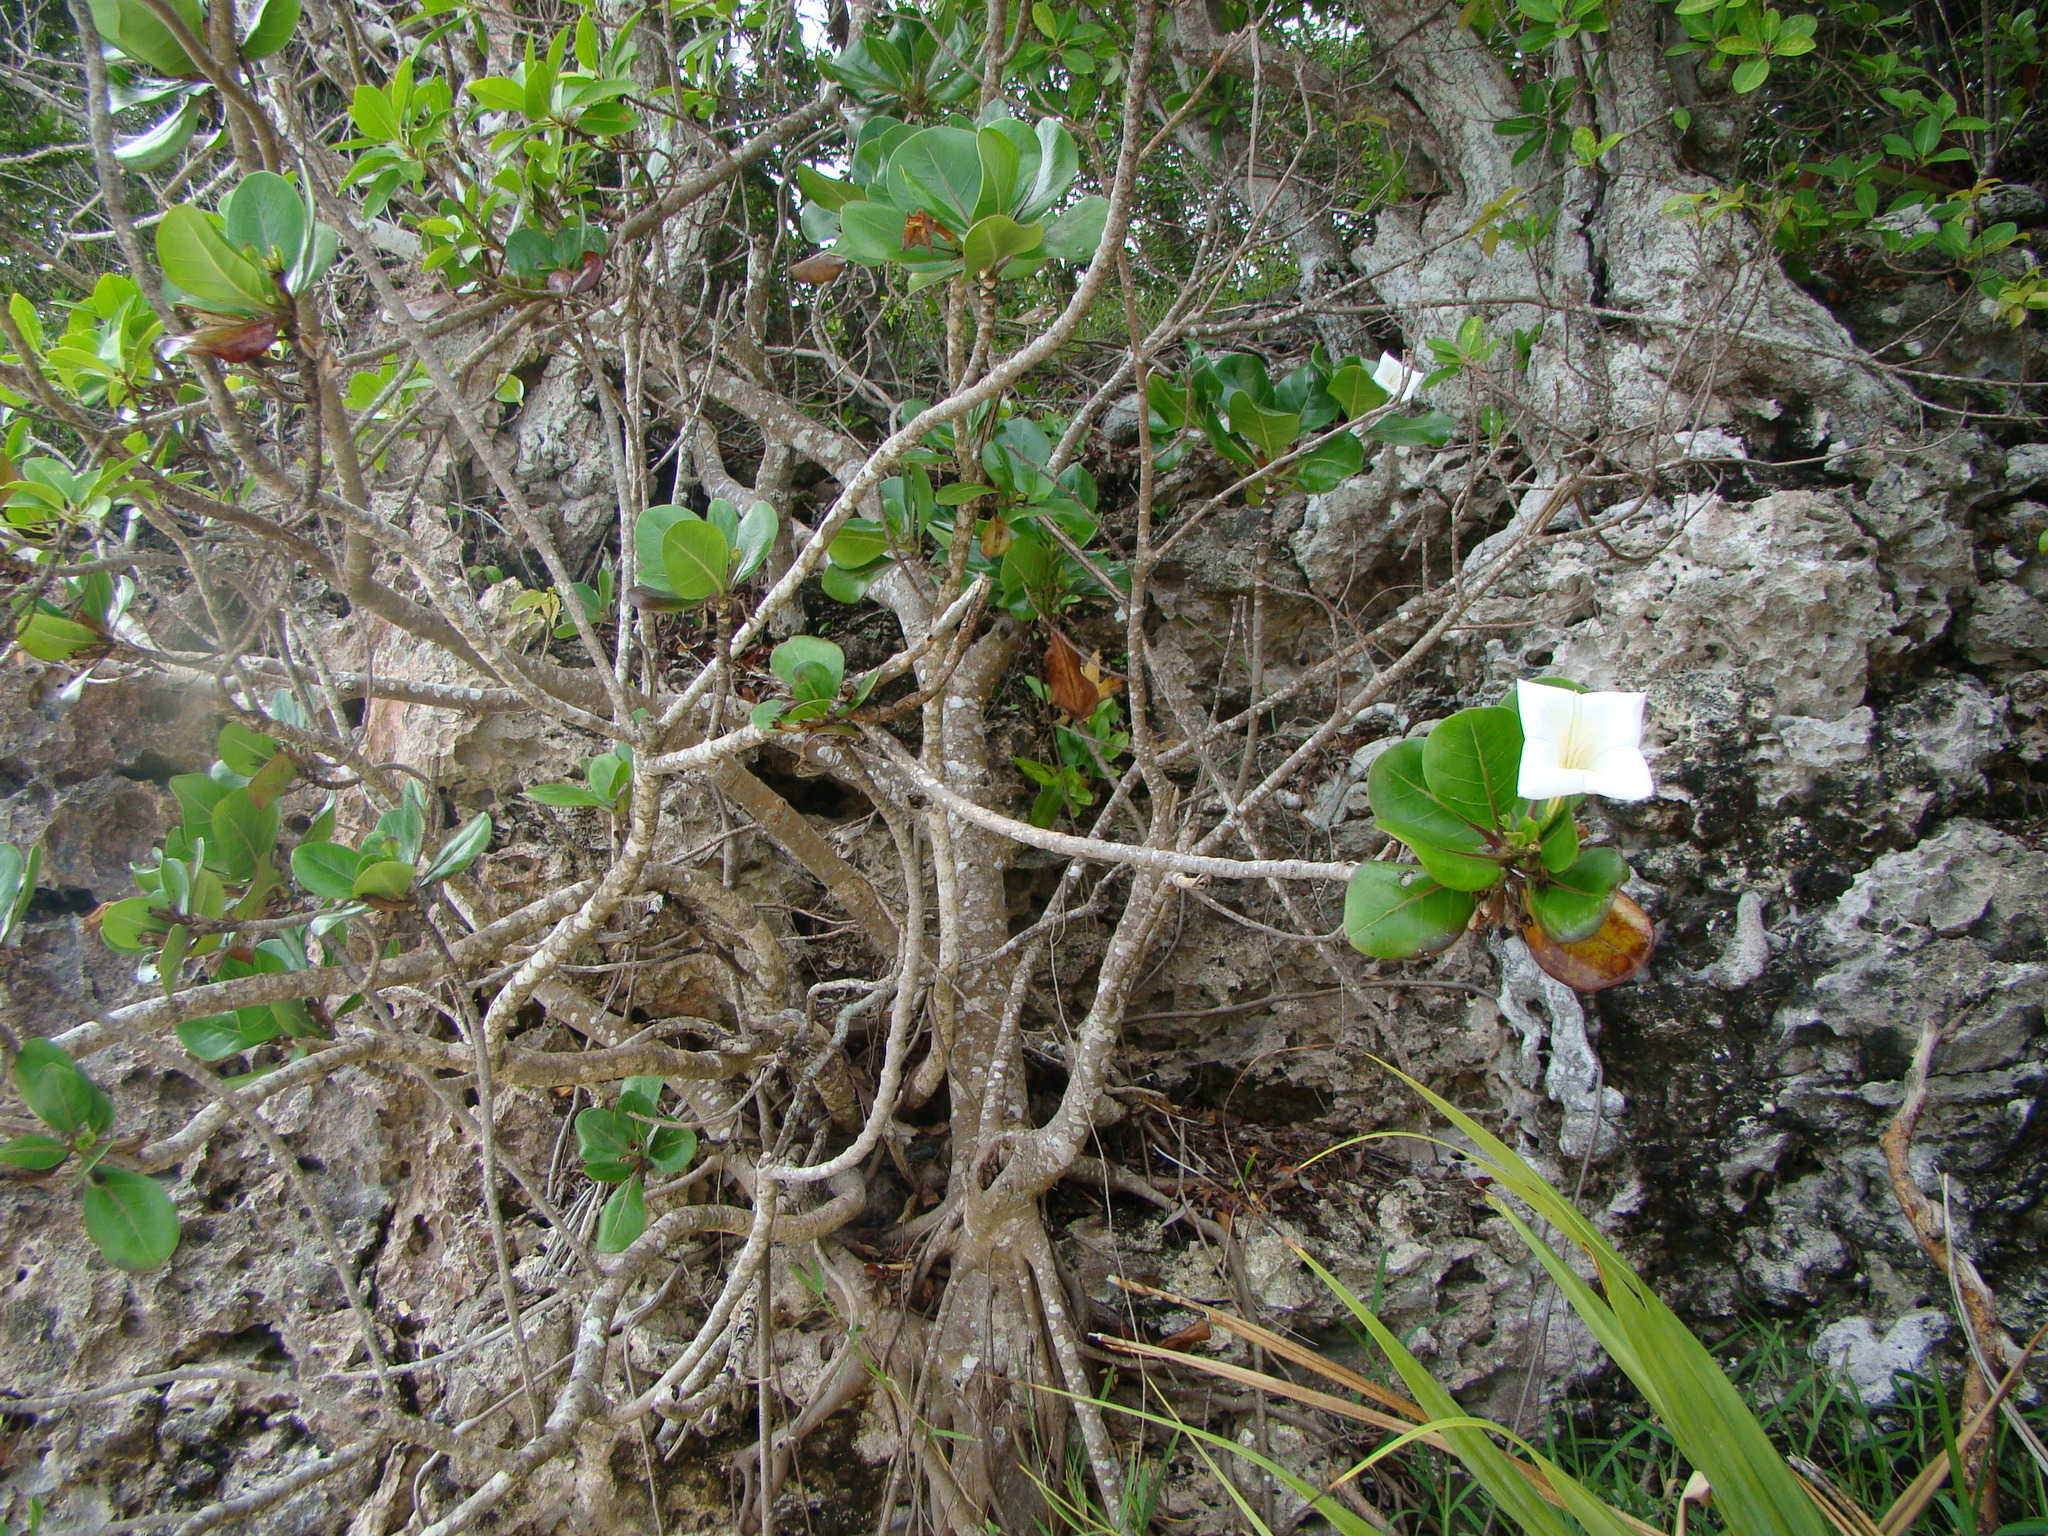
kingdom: Plantae
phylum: Tracheophyta
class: Magnoliopsida
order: Gentianales
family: Rubiaceae
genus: Bikkia
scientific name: Bikkia tetrandra
